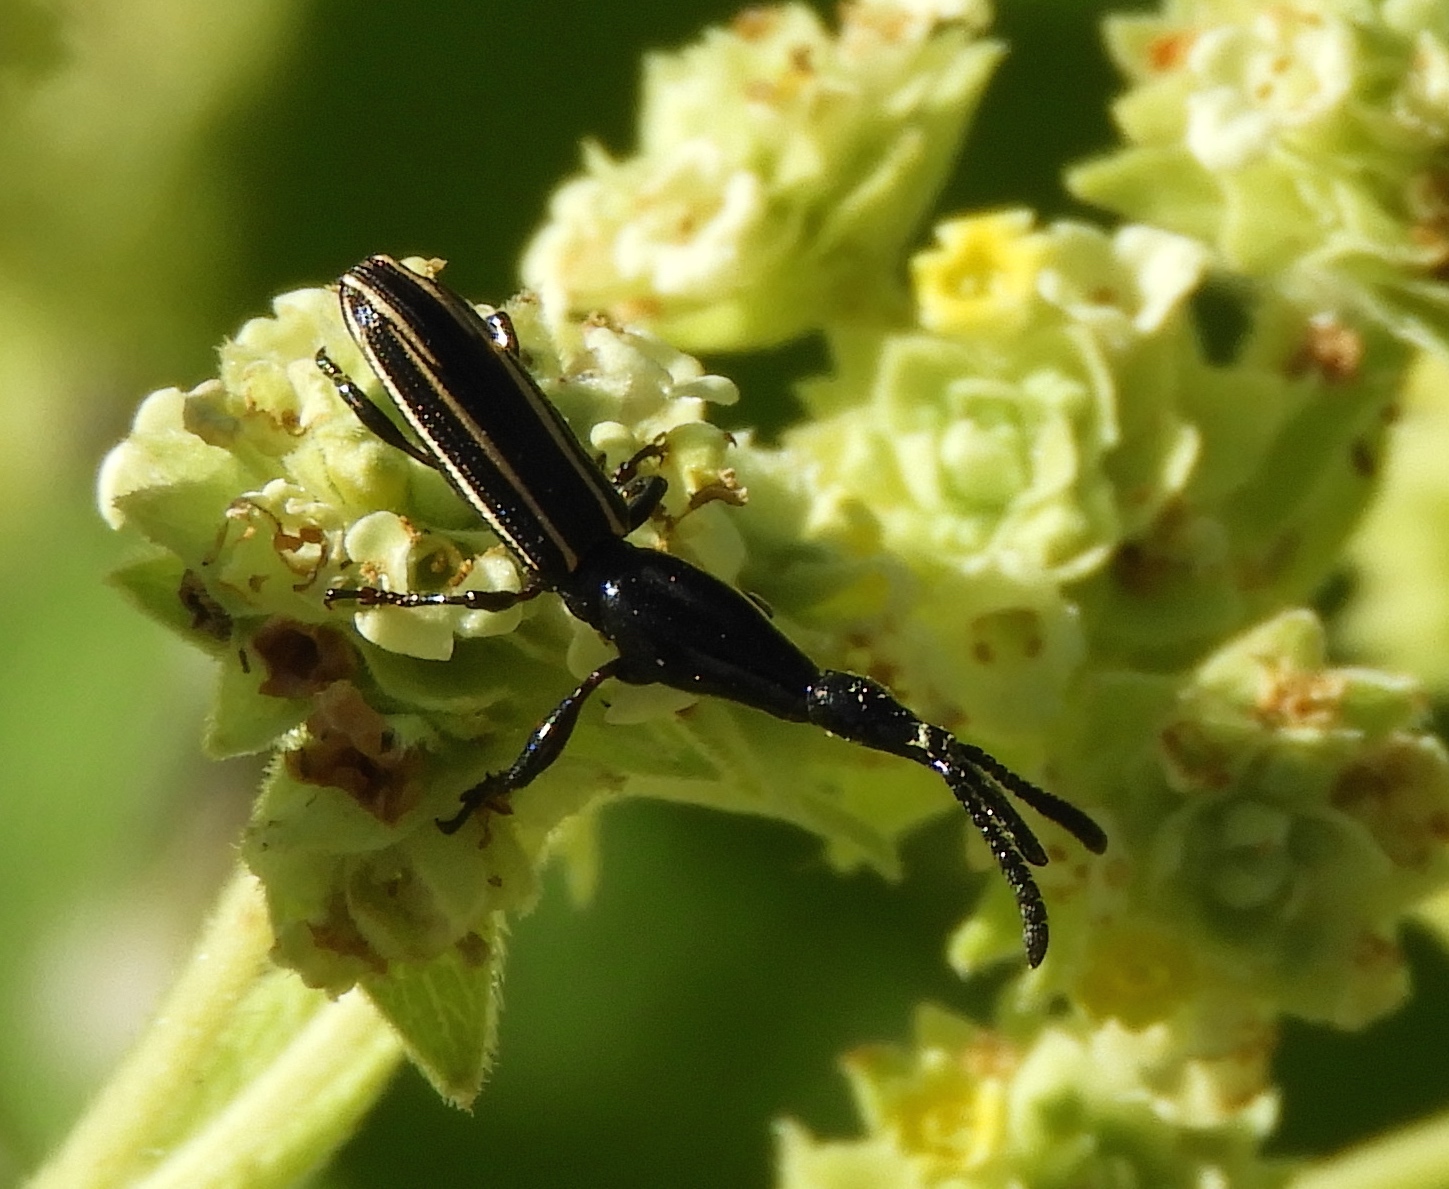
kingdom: Animalia
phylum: Arthropoda
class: Insecta
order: Coleoptera
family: Brentidae
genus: Brentus
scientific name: Brentus
